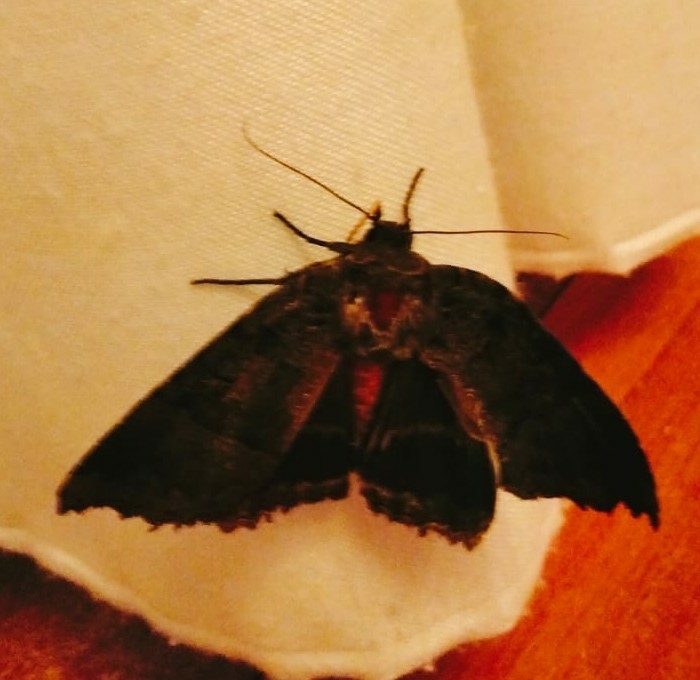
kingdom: Animalia
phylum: Arthropoda
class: Insecta
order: Lepidoptera
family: Noctuidae
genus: Mormo
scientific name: Mormo maura
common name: Old lady
